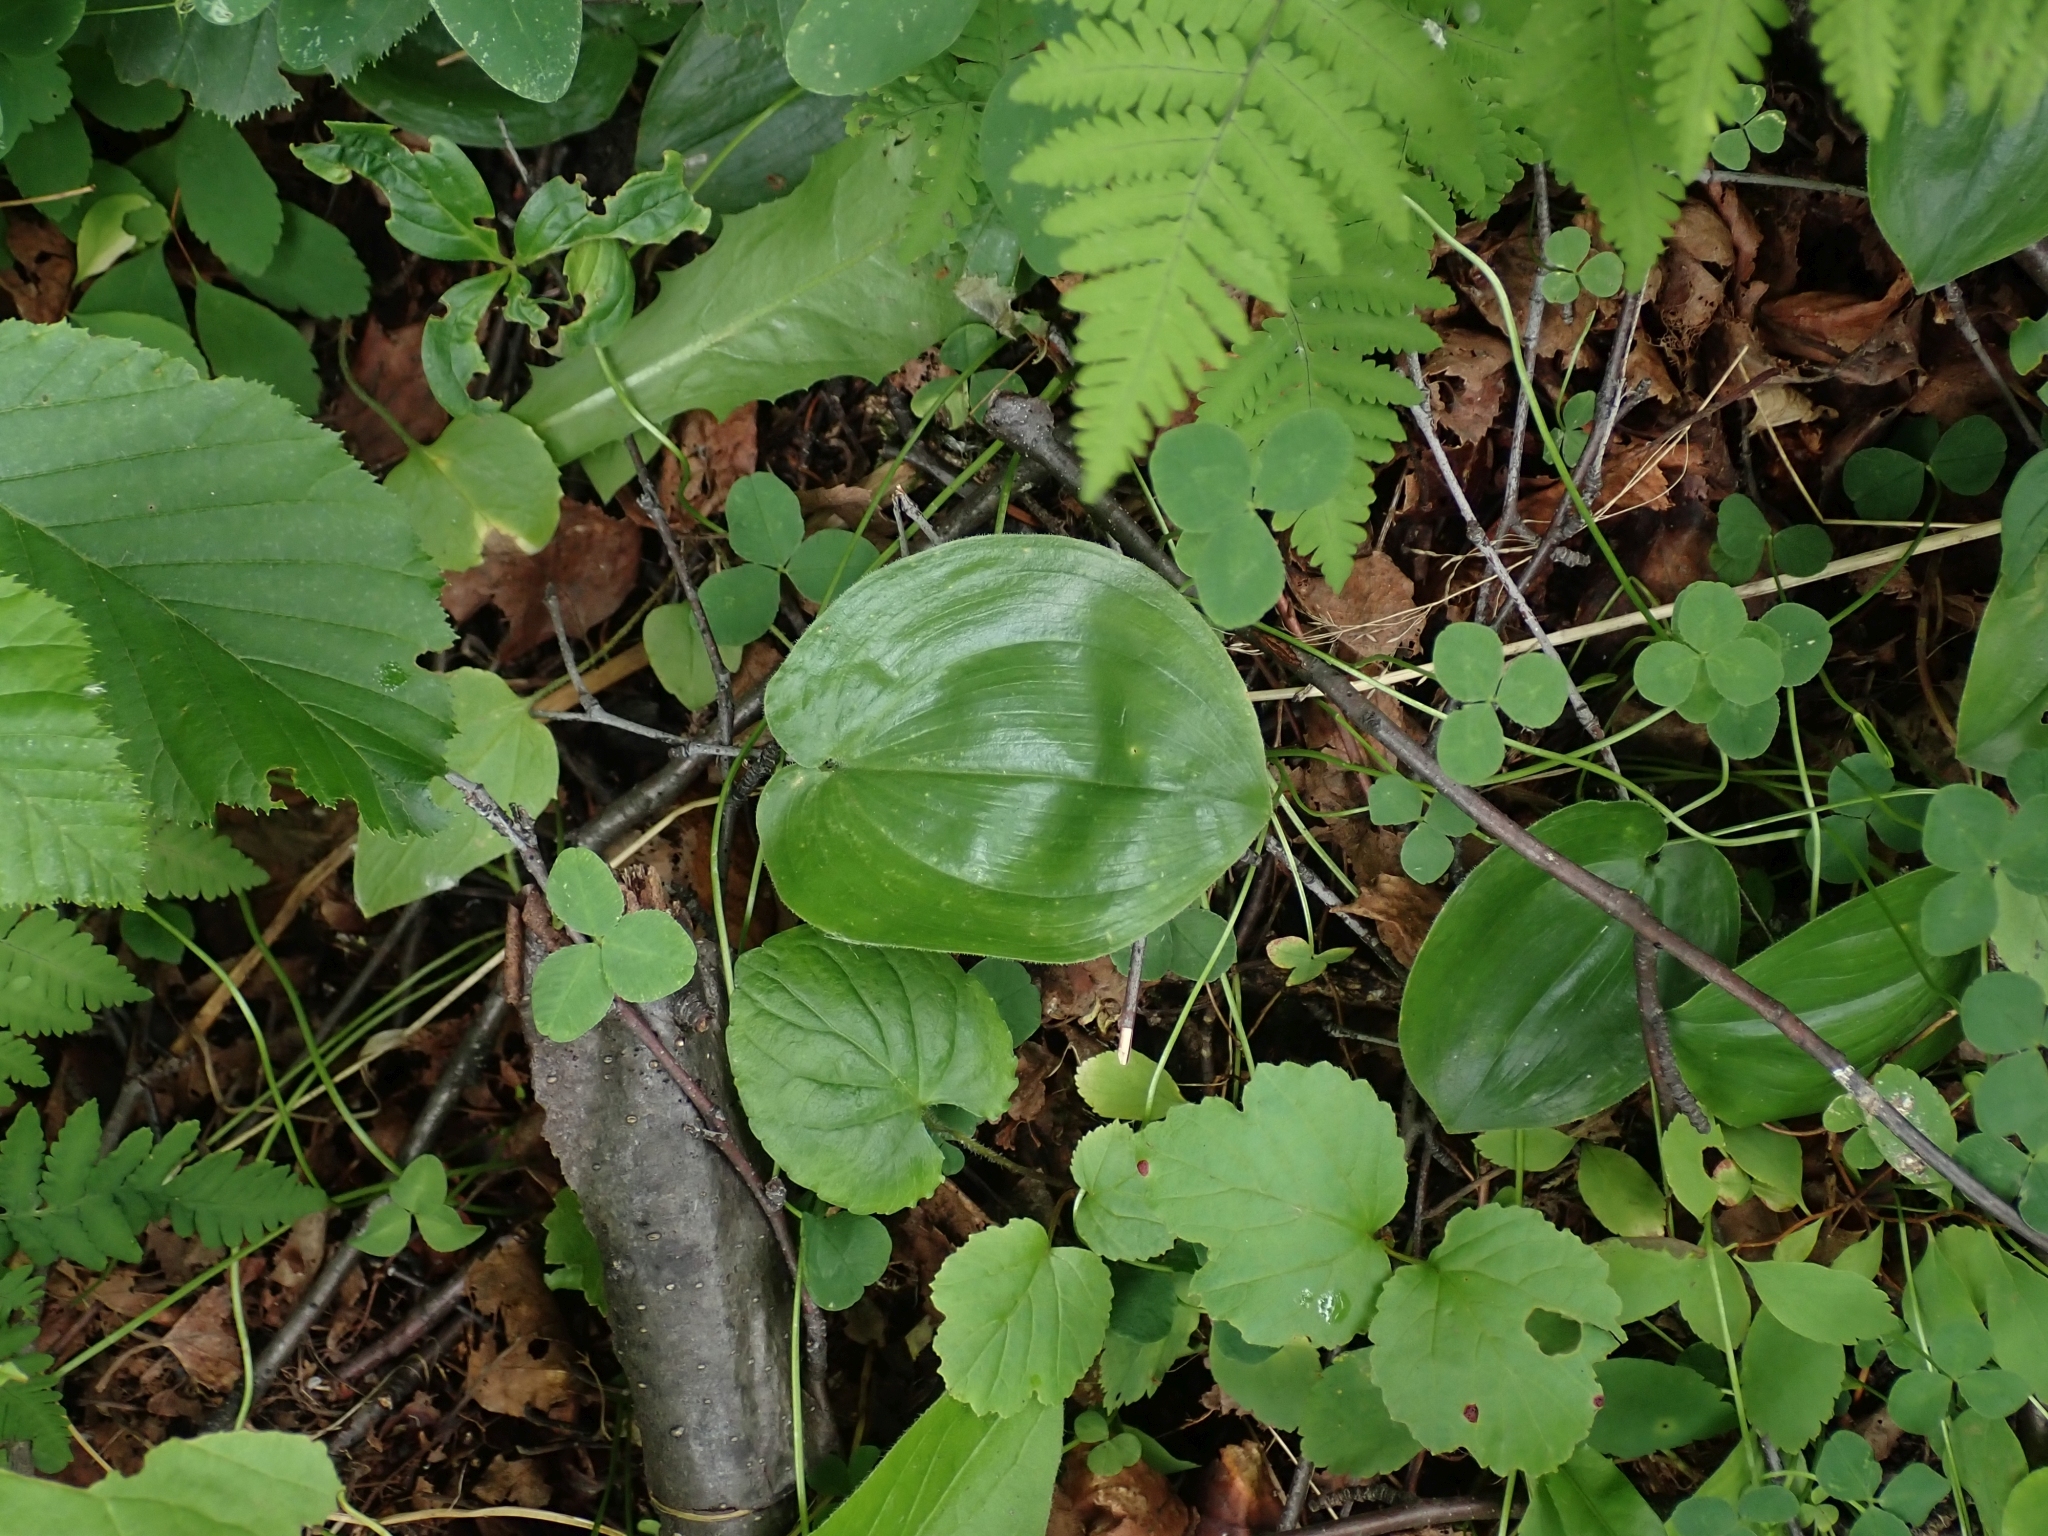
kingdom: Plantae
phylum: Tracheophyta
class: Liliopsida
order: Asparagales
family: Asparagaceae
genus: Maianthemum
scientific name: Maianthemum canadense
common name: False lily-of-the-valley
